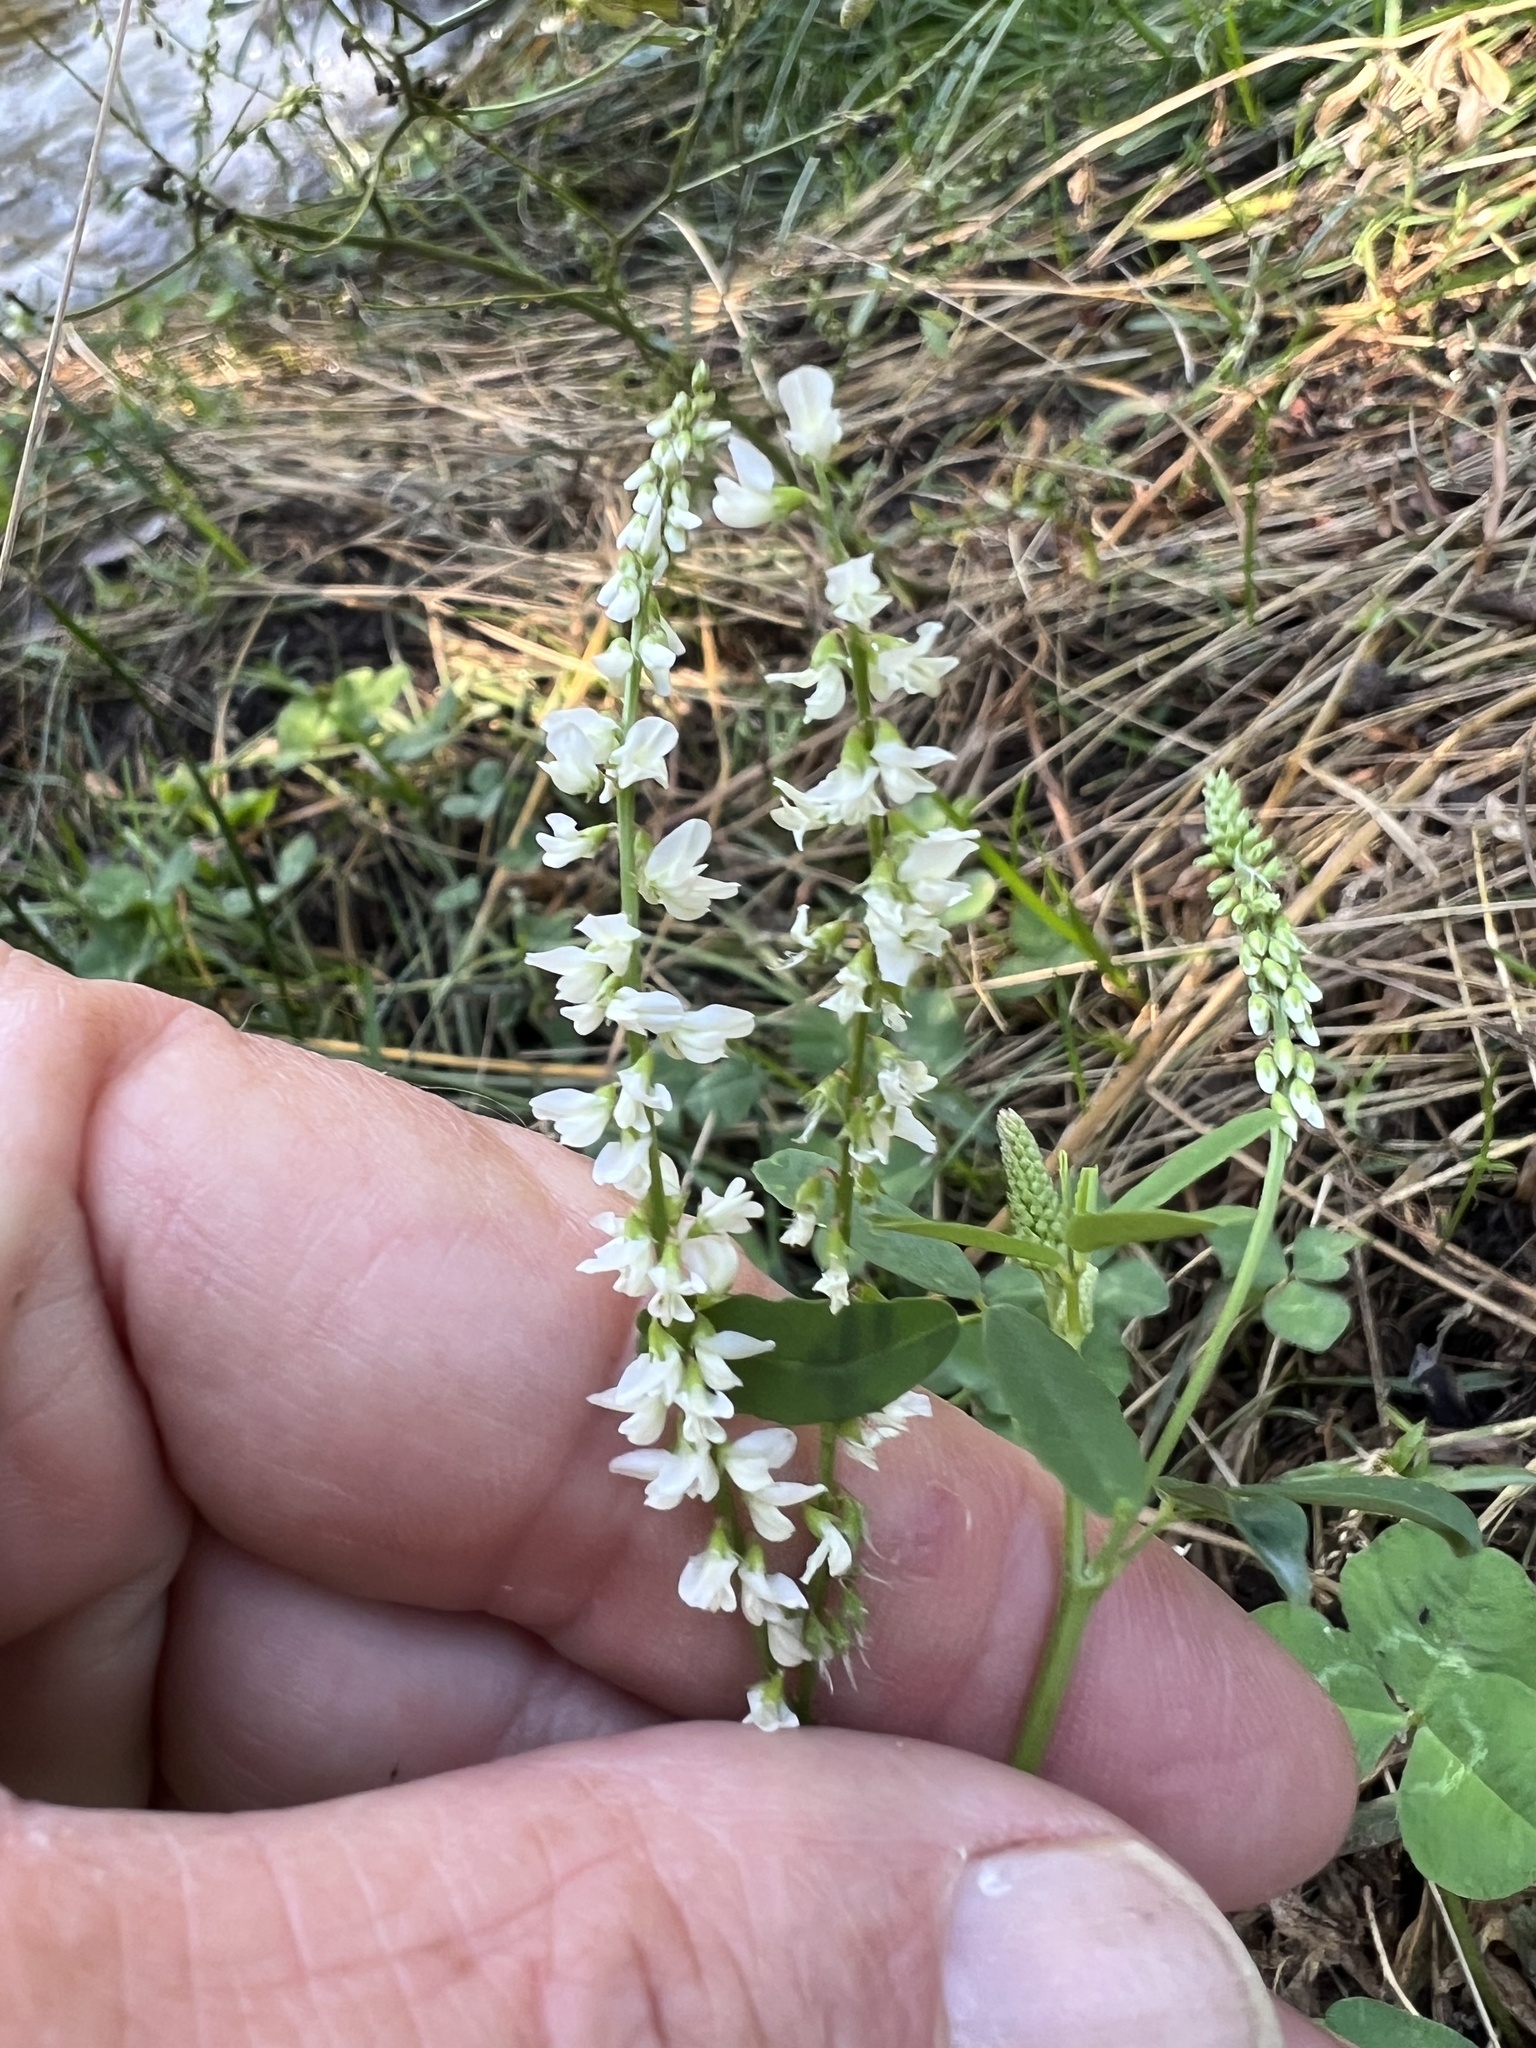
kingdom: Plantae
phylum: Tracheophyta
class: Magnoliopsida
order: Fabales
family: Fabaceae
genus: Melilotus
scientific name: Melilotus albus
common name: White melilot
